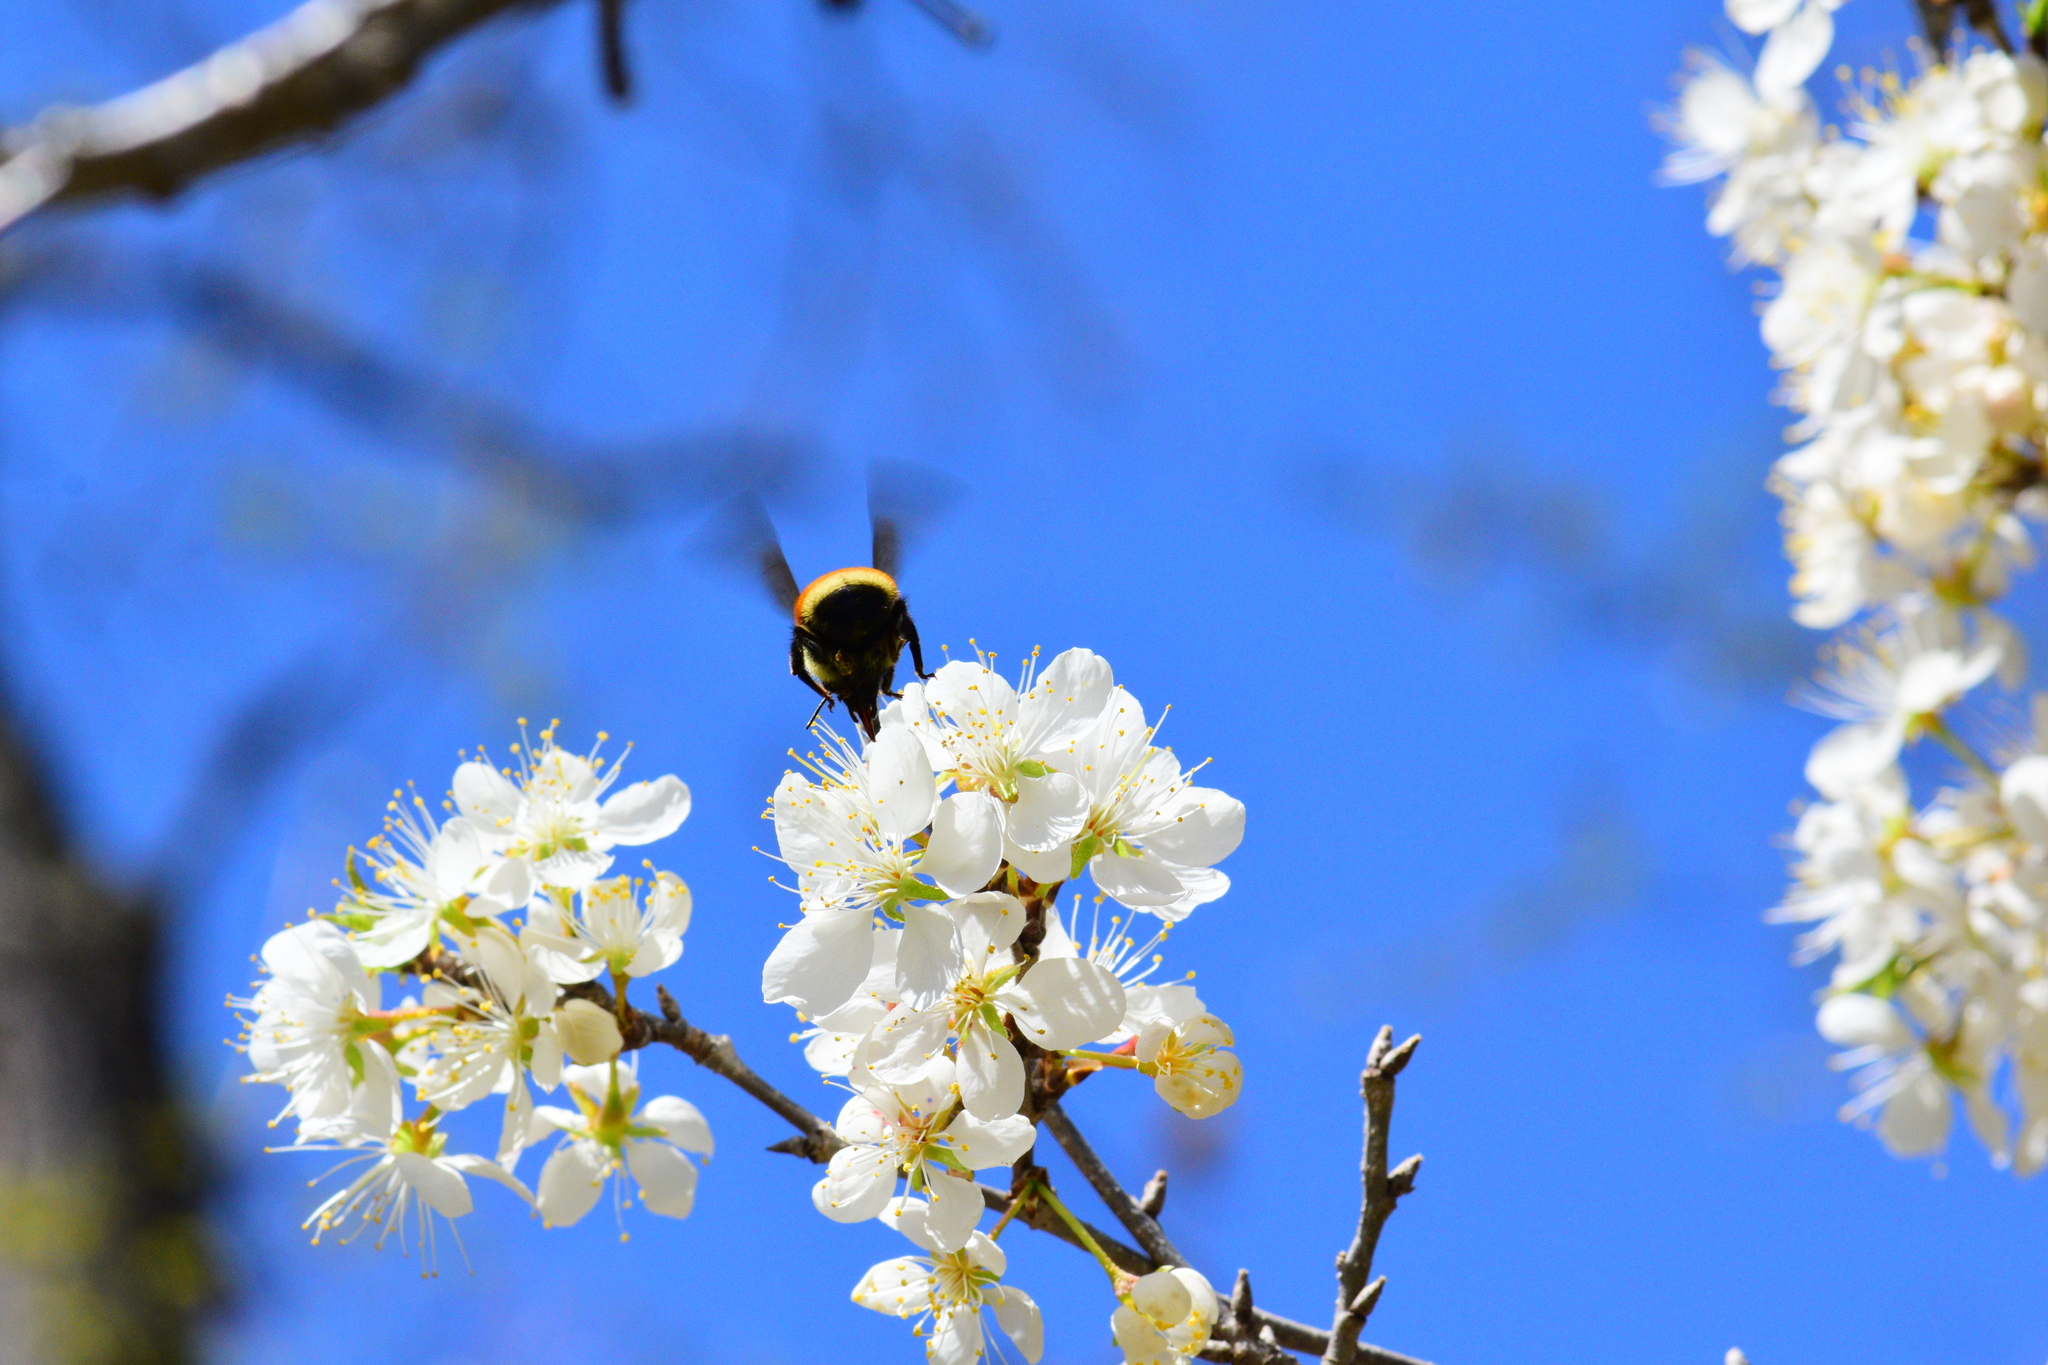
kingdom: Animalia
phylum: Arthropoda
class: Insecta
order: Hymenoptera
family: Apidae
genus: Bombus
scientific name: Bombus ternarius
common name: Tri-colored bumble bee
